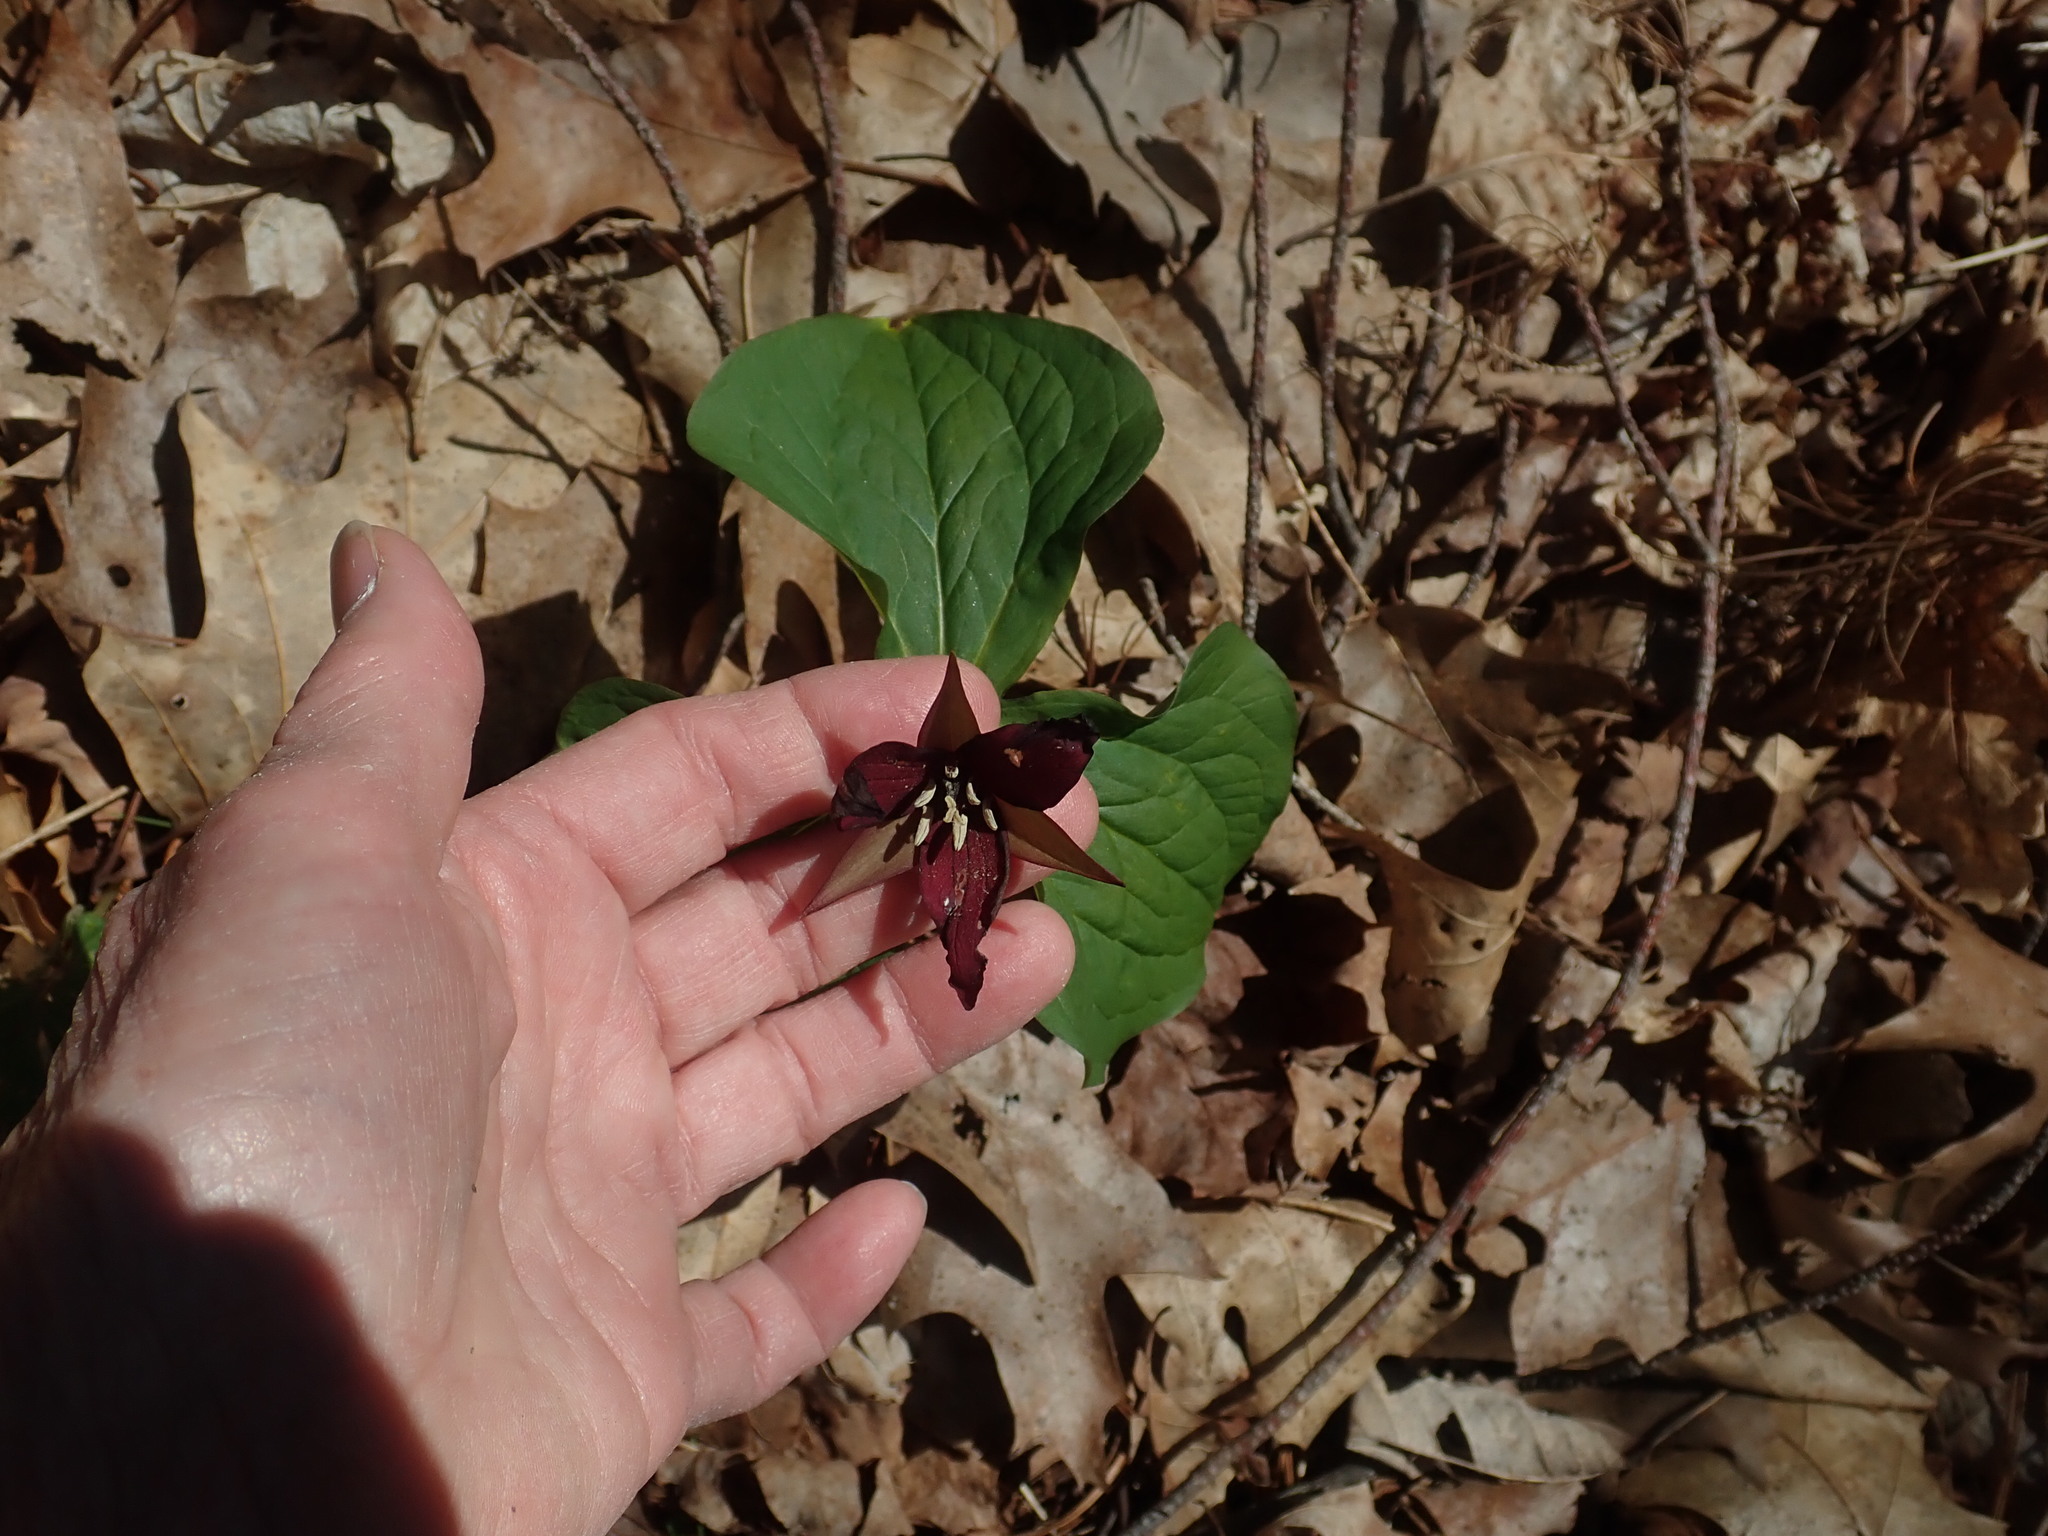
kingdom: Plantae
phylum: Tracheophyta
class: Liliopsida
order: Liliales
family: Melanthiaceae
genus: Trillium
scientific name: Trillium erectum
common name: Purple trillium
